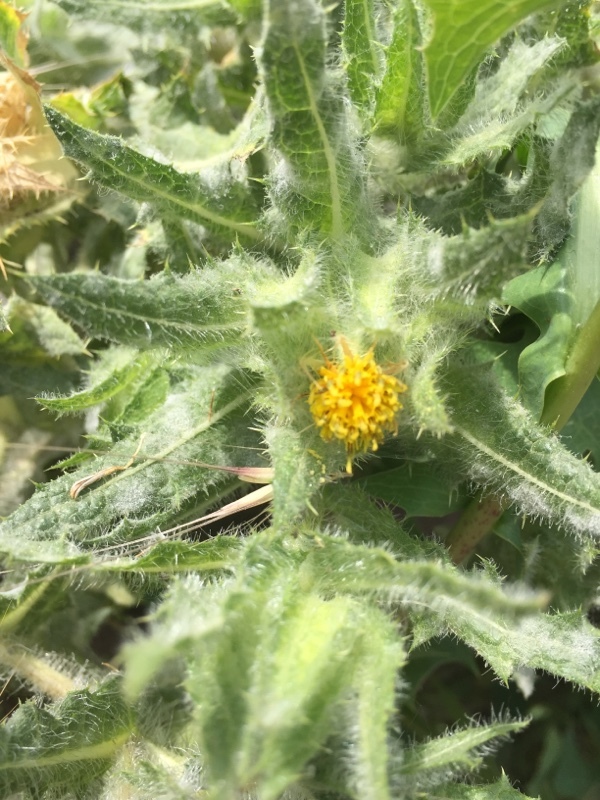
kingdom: Plantae
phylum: Tracheophyta
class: Magnoliopsida
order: Asterales
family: Asteraceae
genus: Centaurea
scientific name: Centaurea benedicta
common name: Blessed thistle
